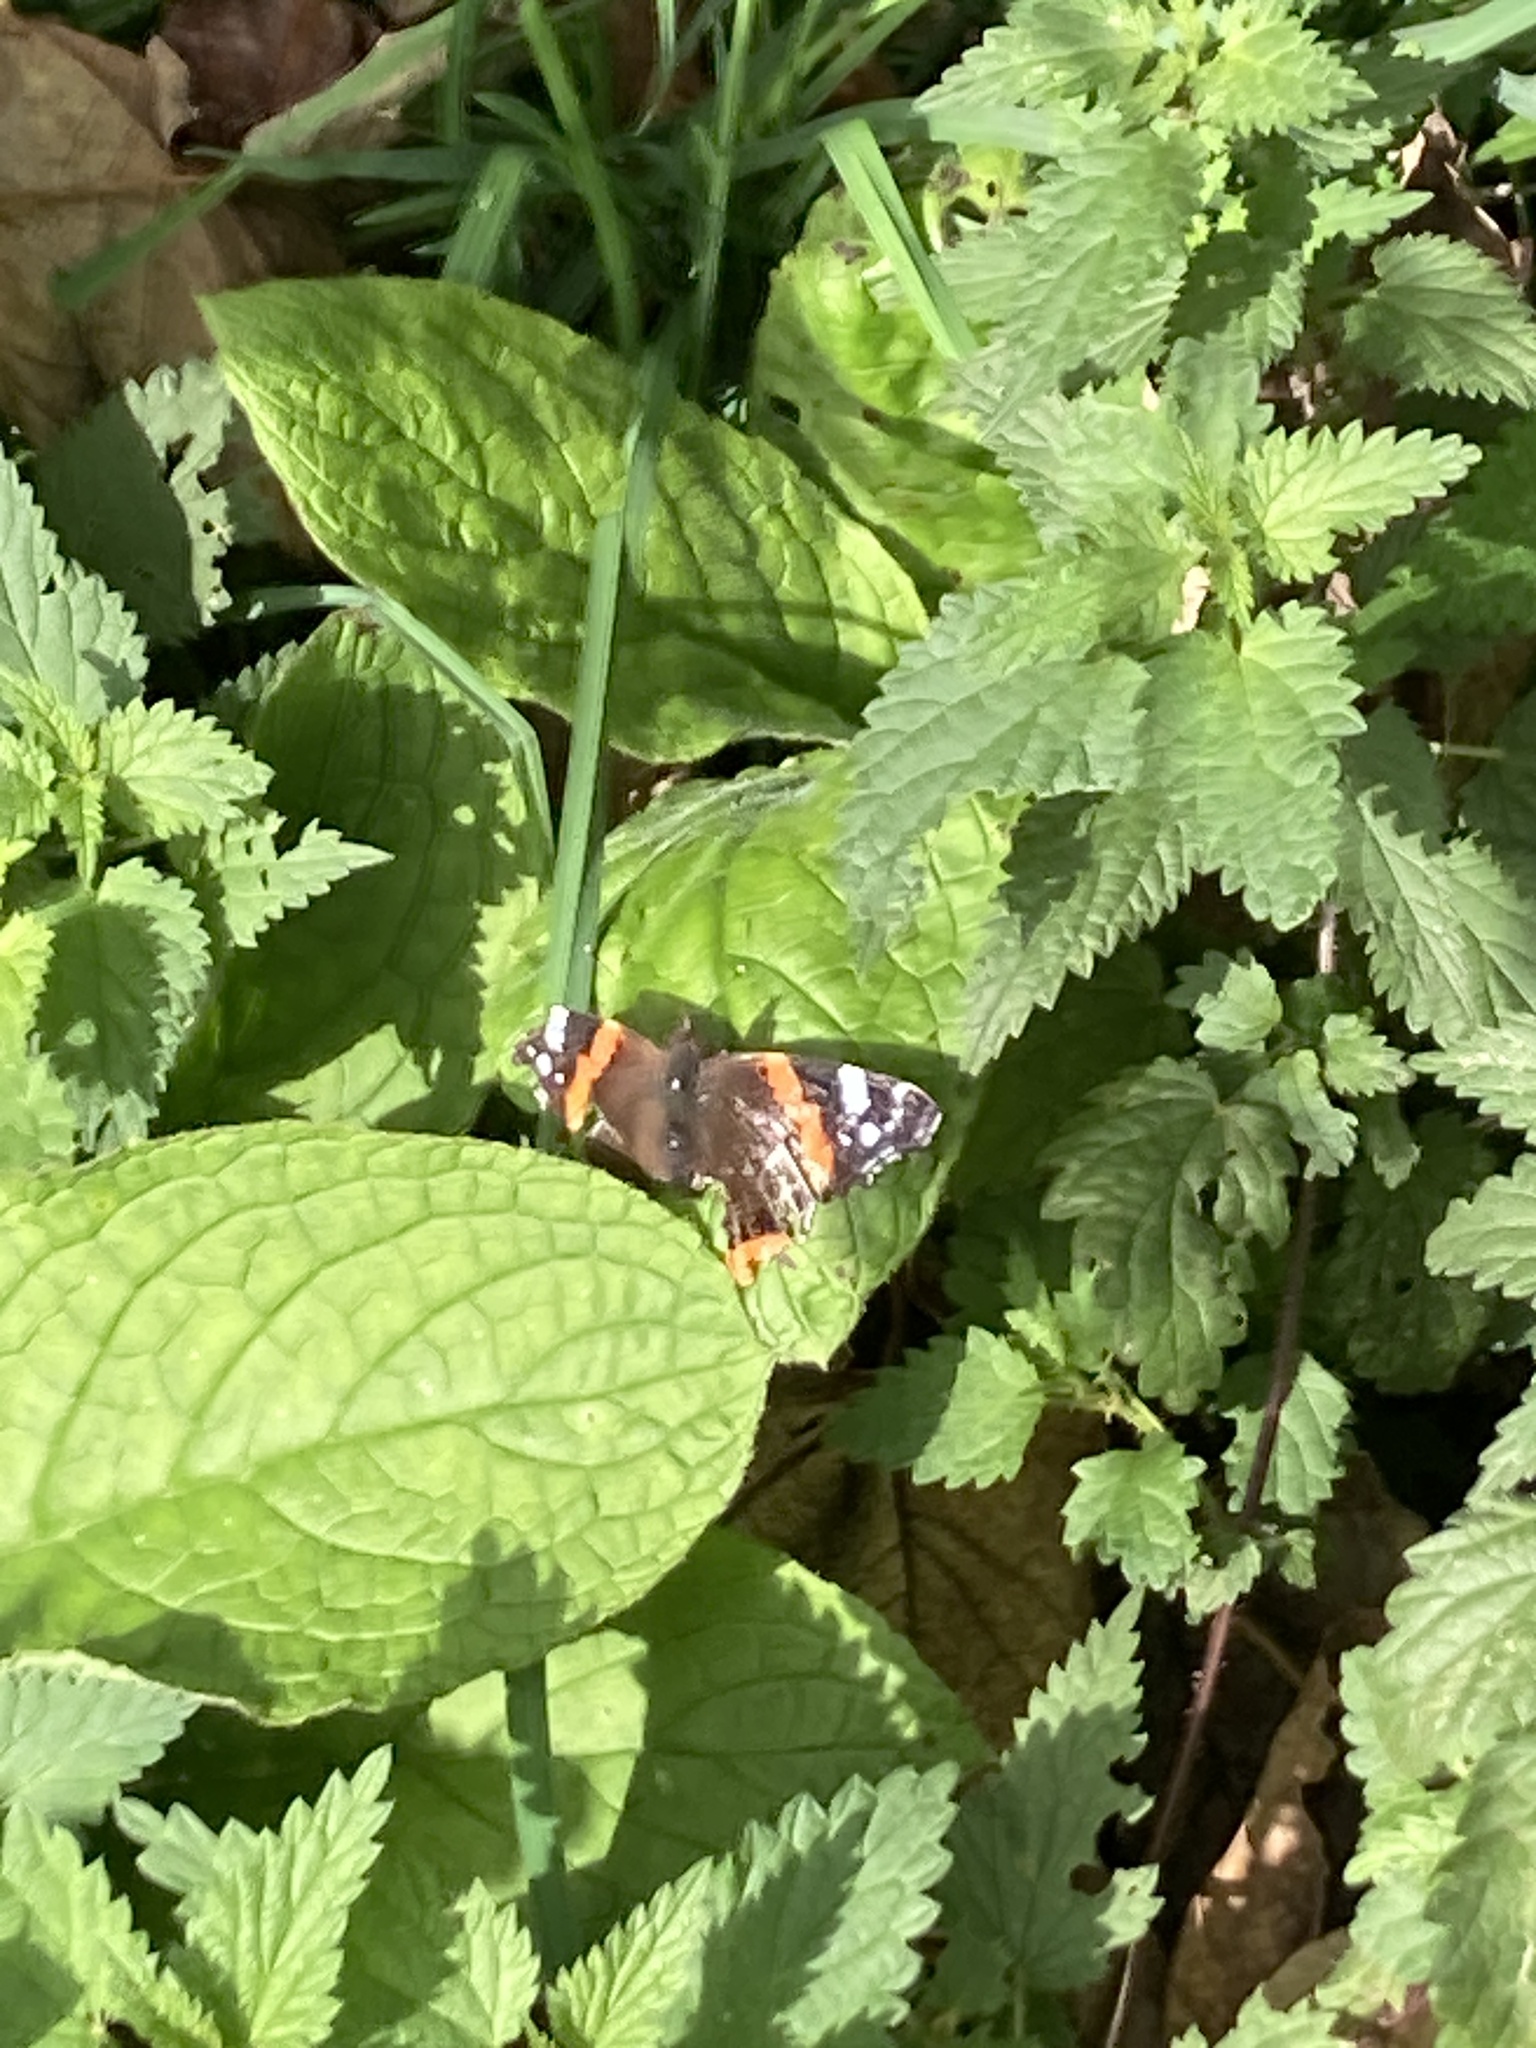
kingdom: Animalia
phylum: Arthropoda
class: Insecta
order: Lepidoptera
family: Nymphalidae
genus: Vanessa
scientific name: Vanessa atalanta
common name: Red admiral
